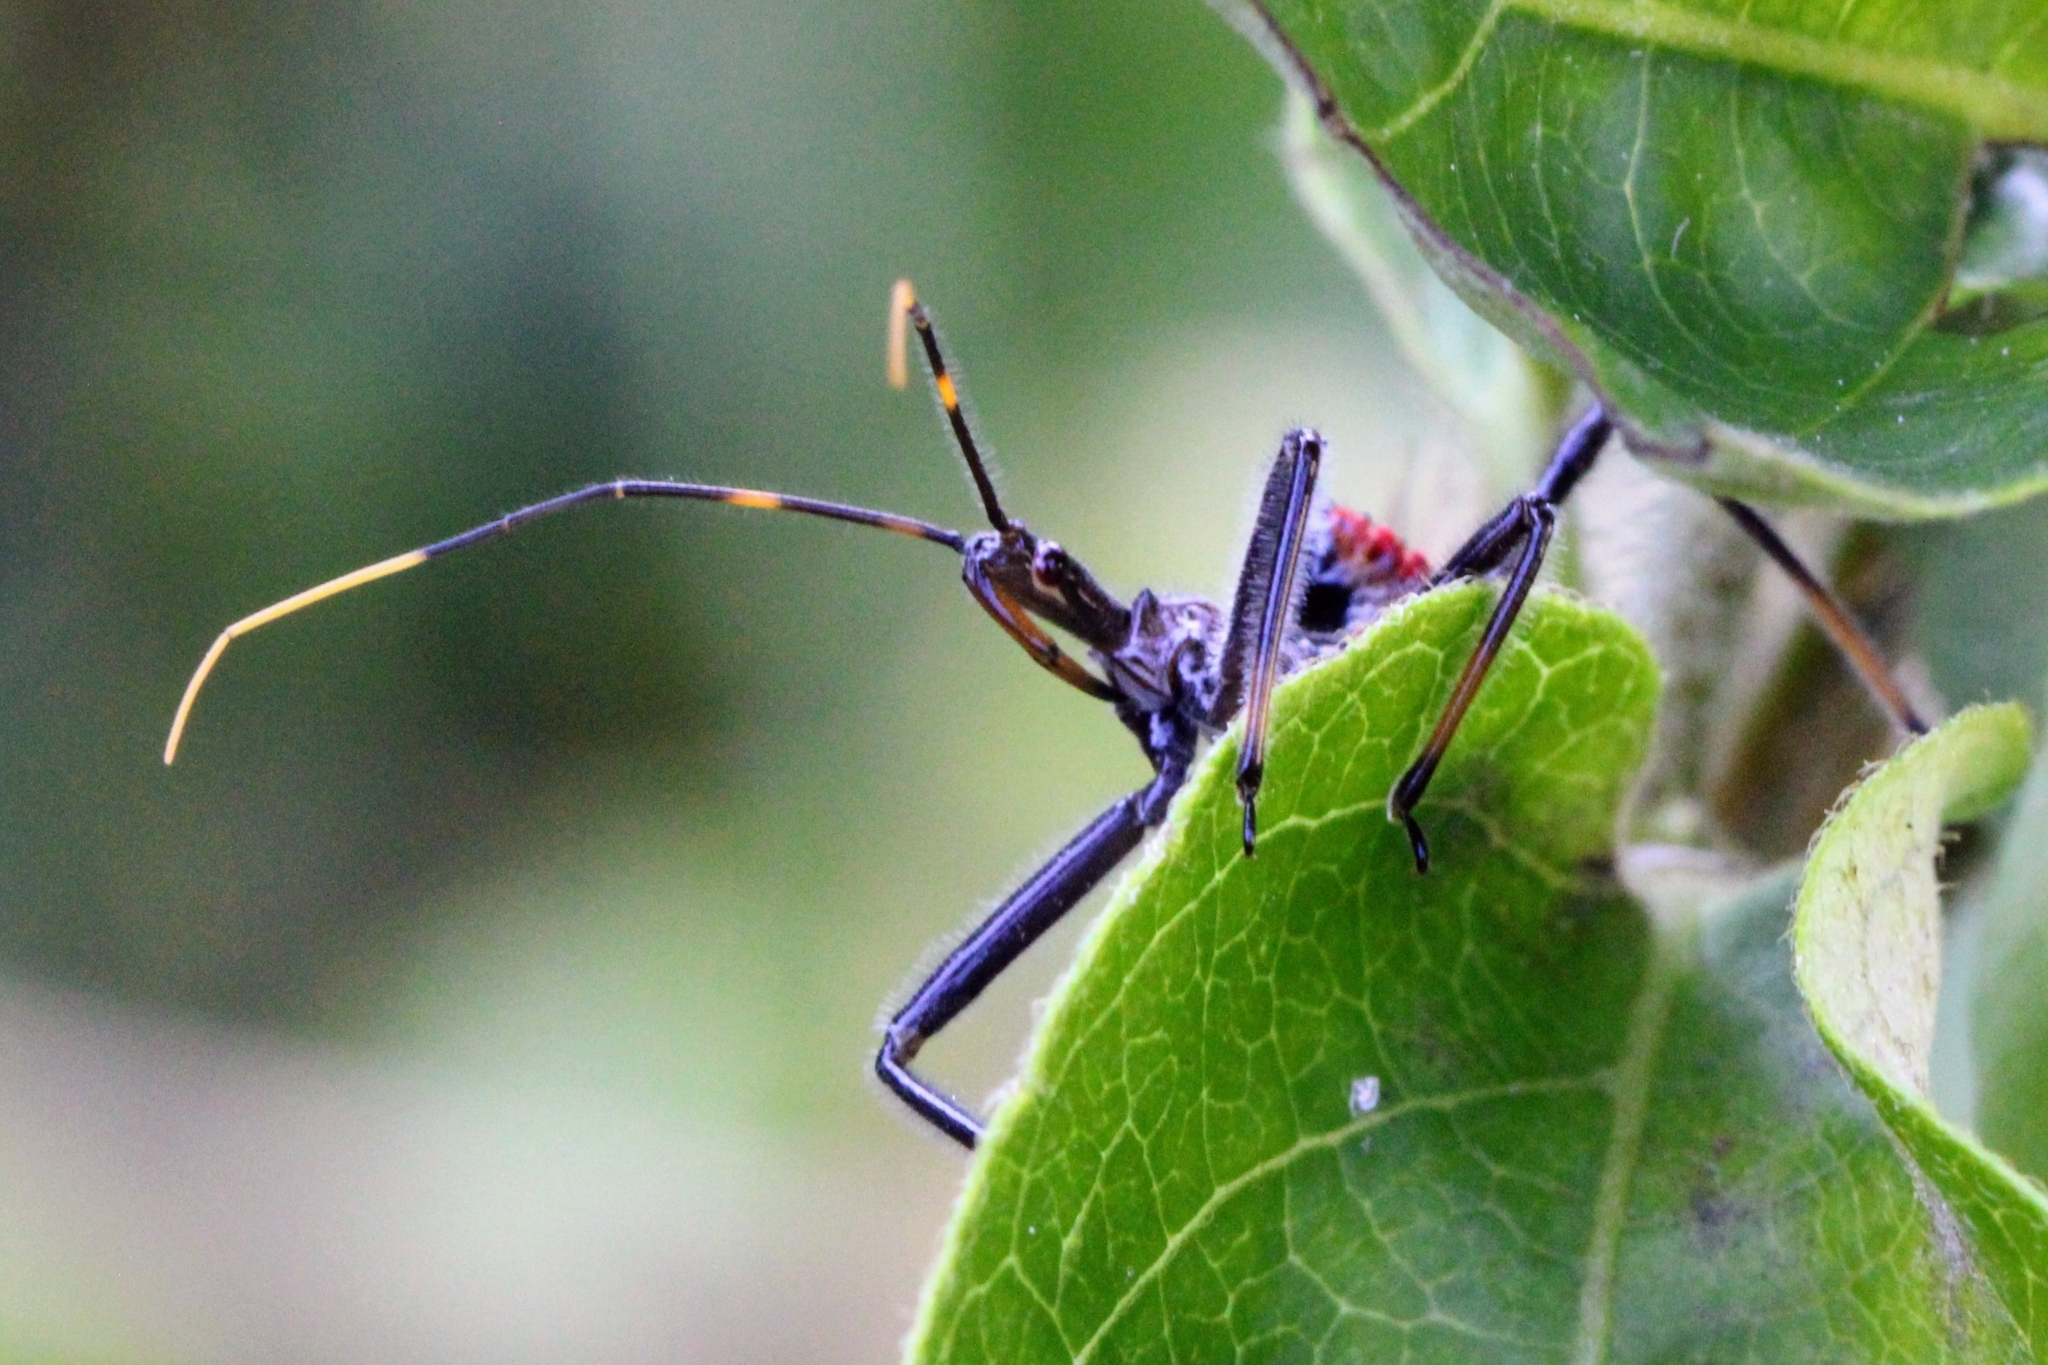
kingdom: Animalia
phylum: Arthropoda
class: Insecta
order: Hemiptera
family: Reduviidae
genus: Arilus
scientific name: Arilus cristatus
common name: North american wheel bug
